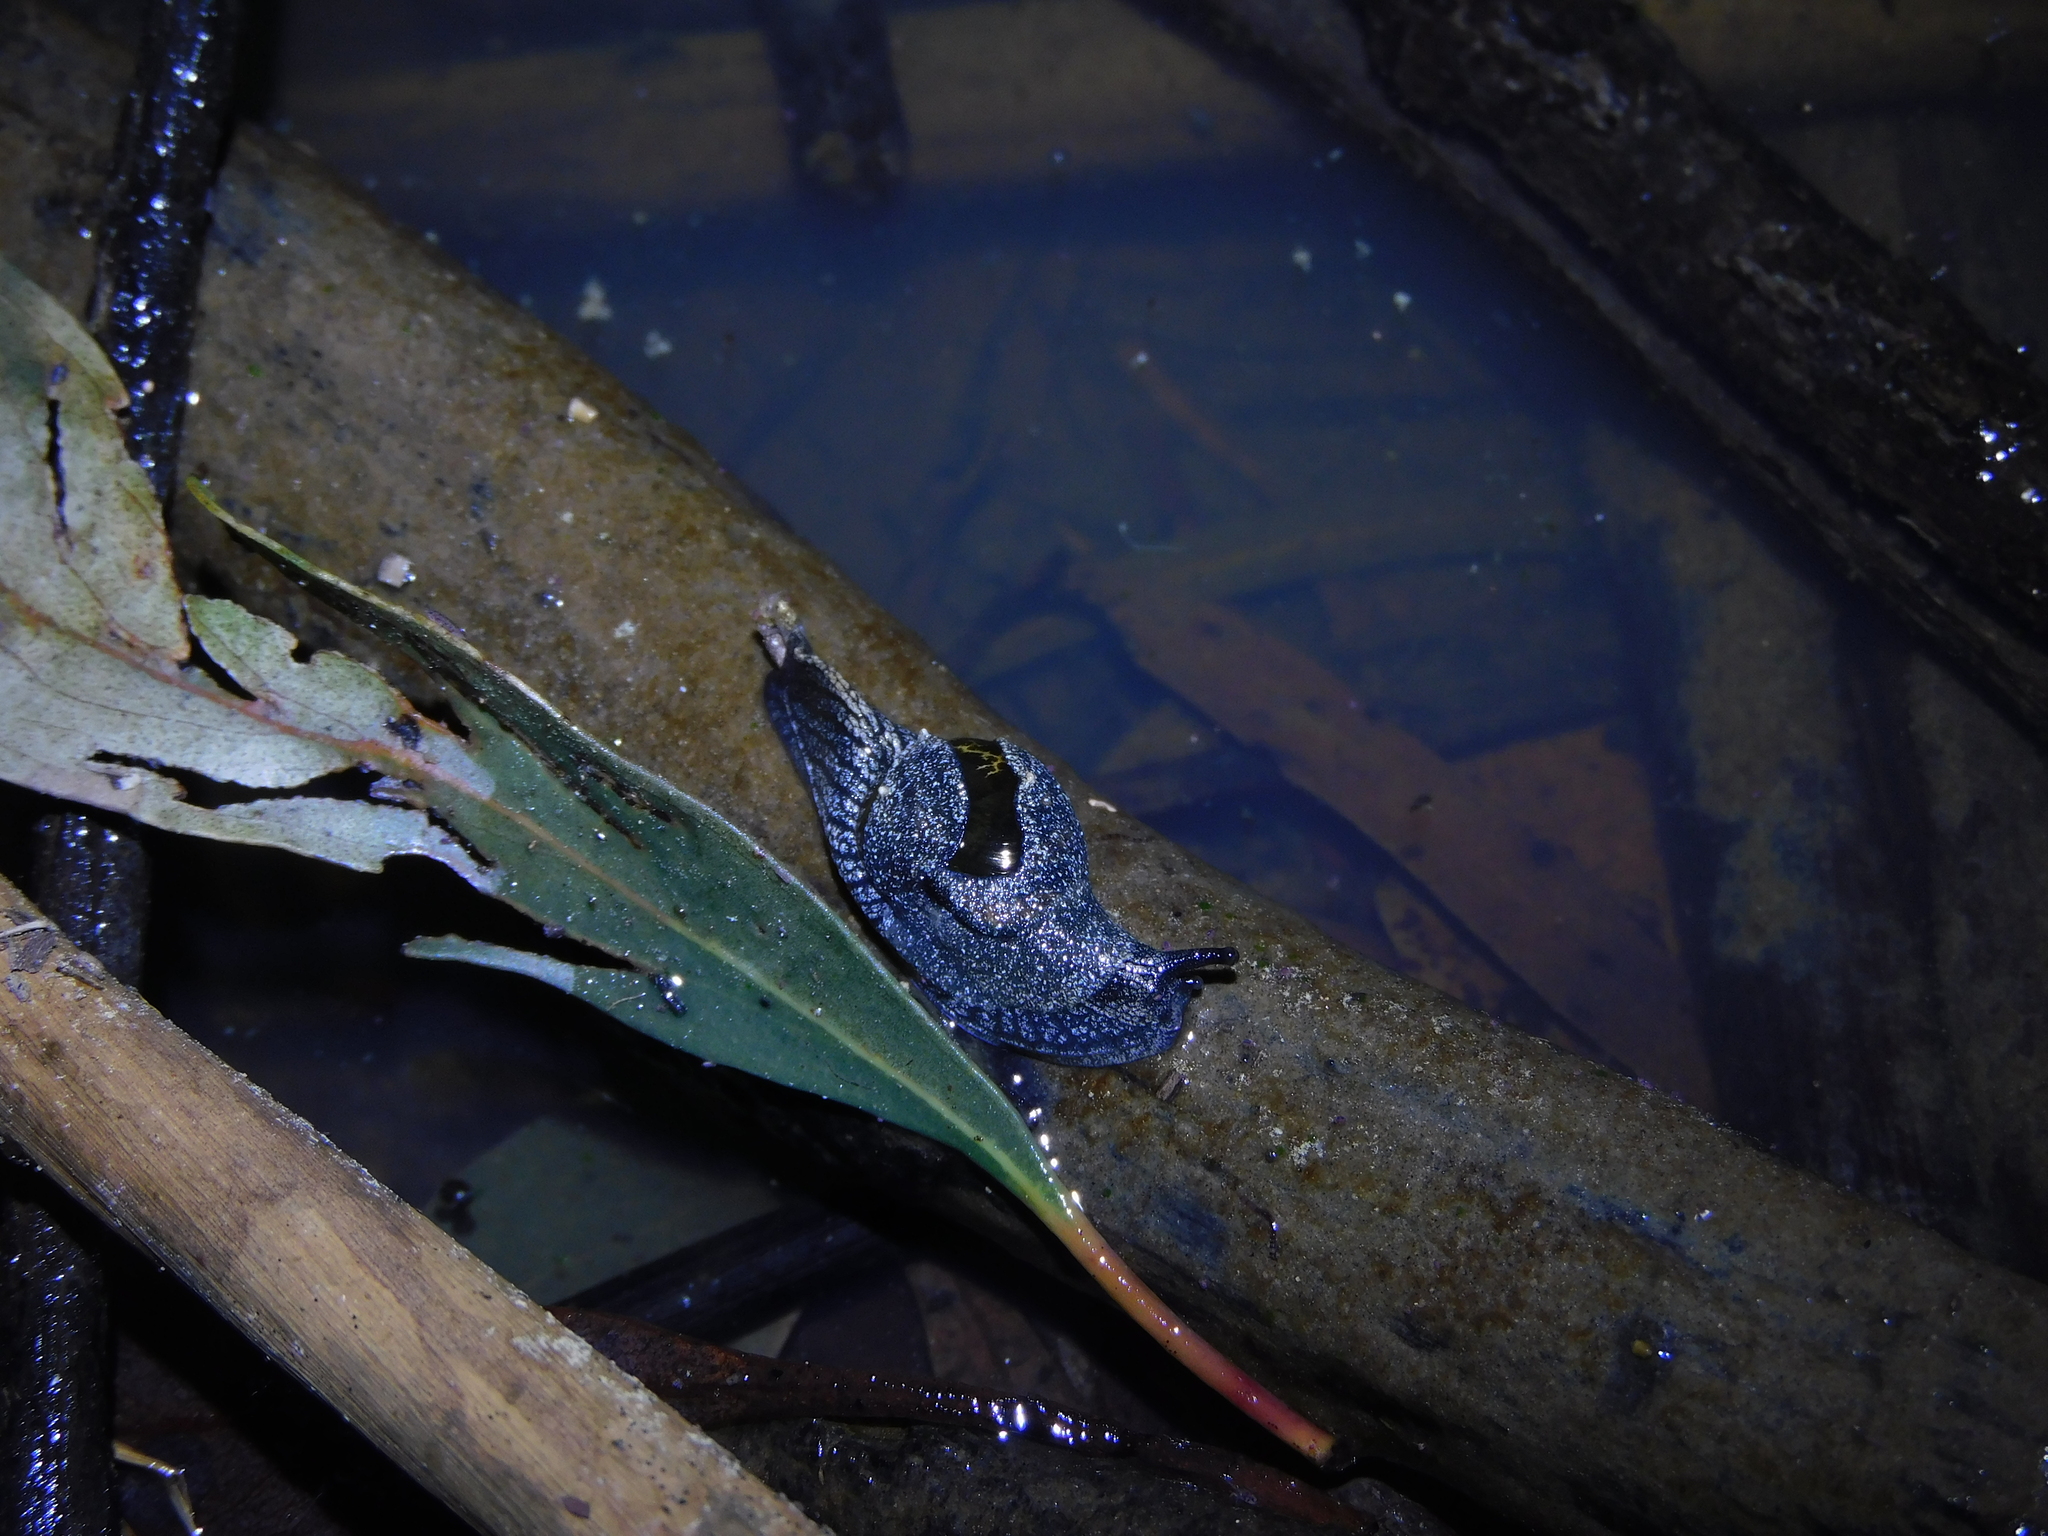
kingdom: Animalia
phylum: Mollusca
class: Gastropoda
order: Stylommatophora
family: Helicarionidae
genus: Helicarion
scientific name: Helicarion cuvieri
